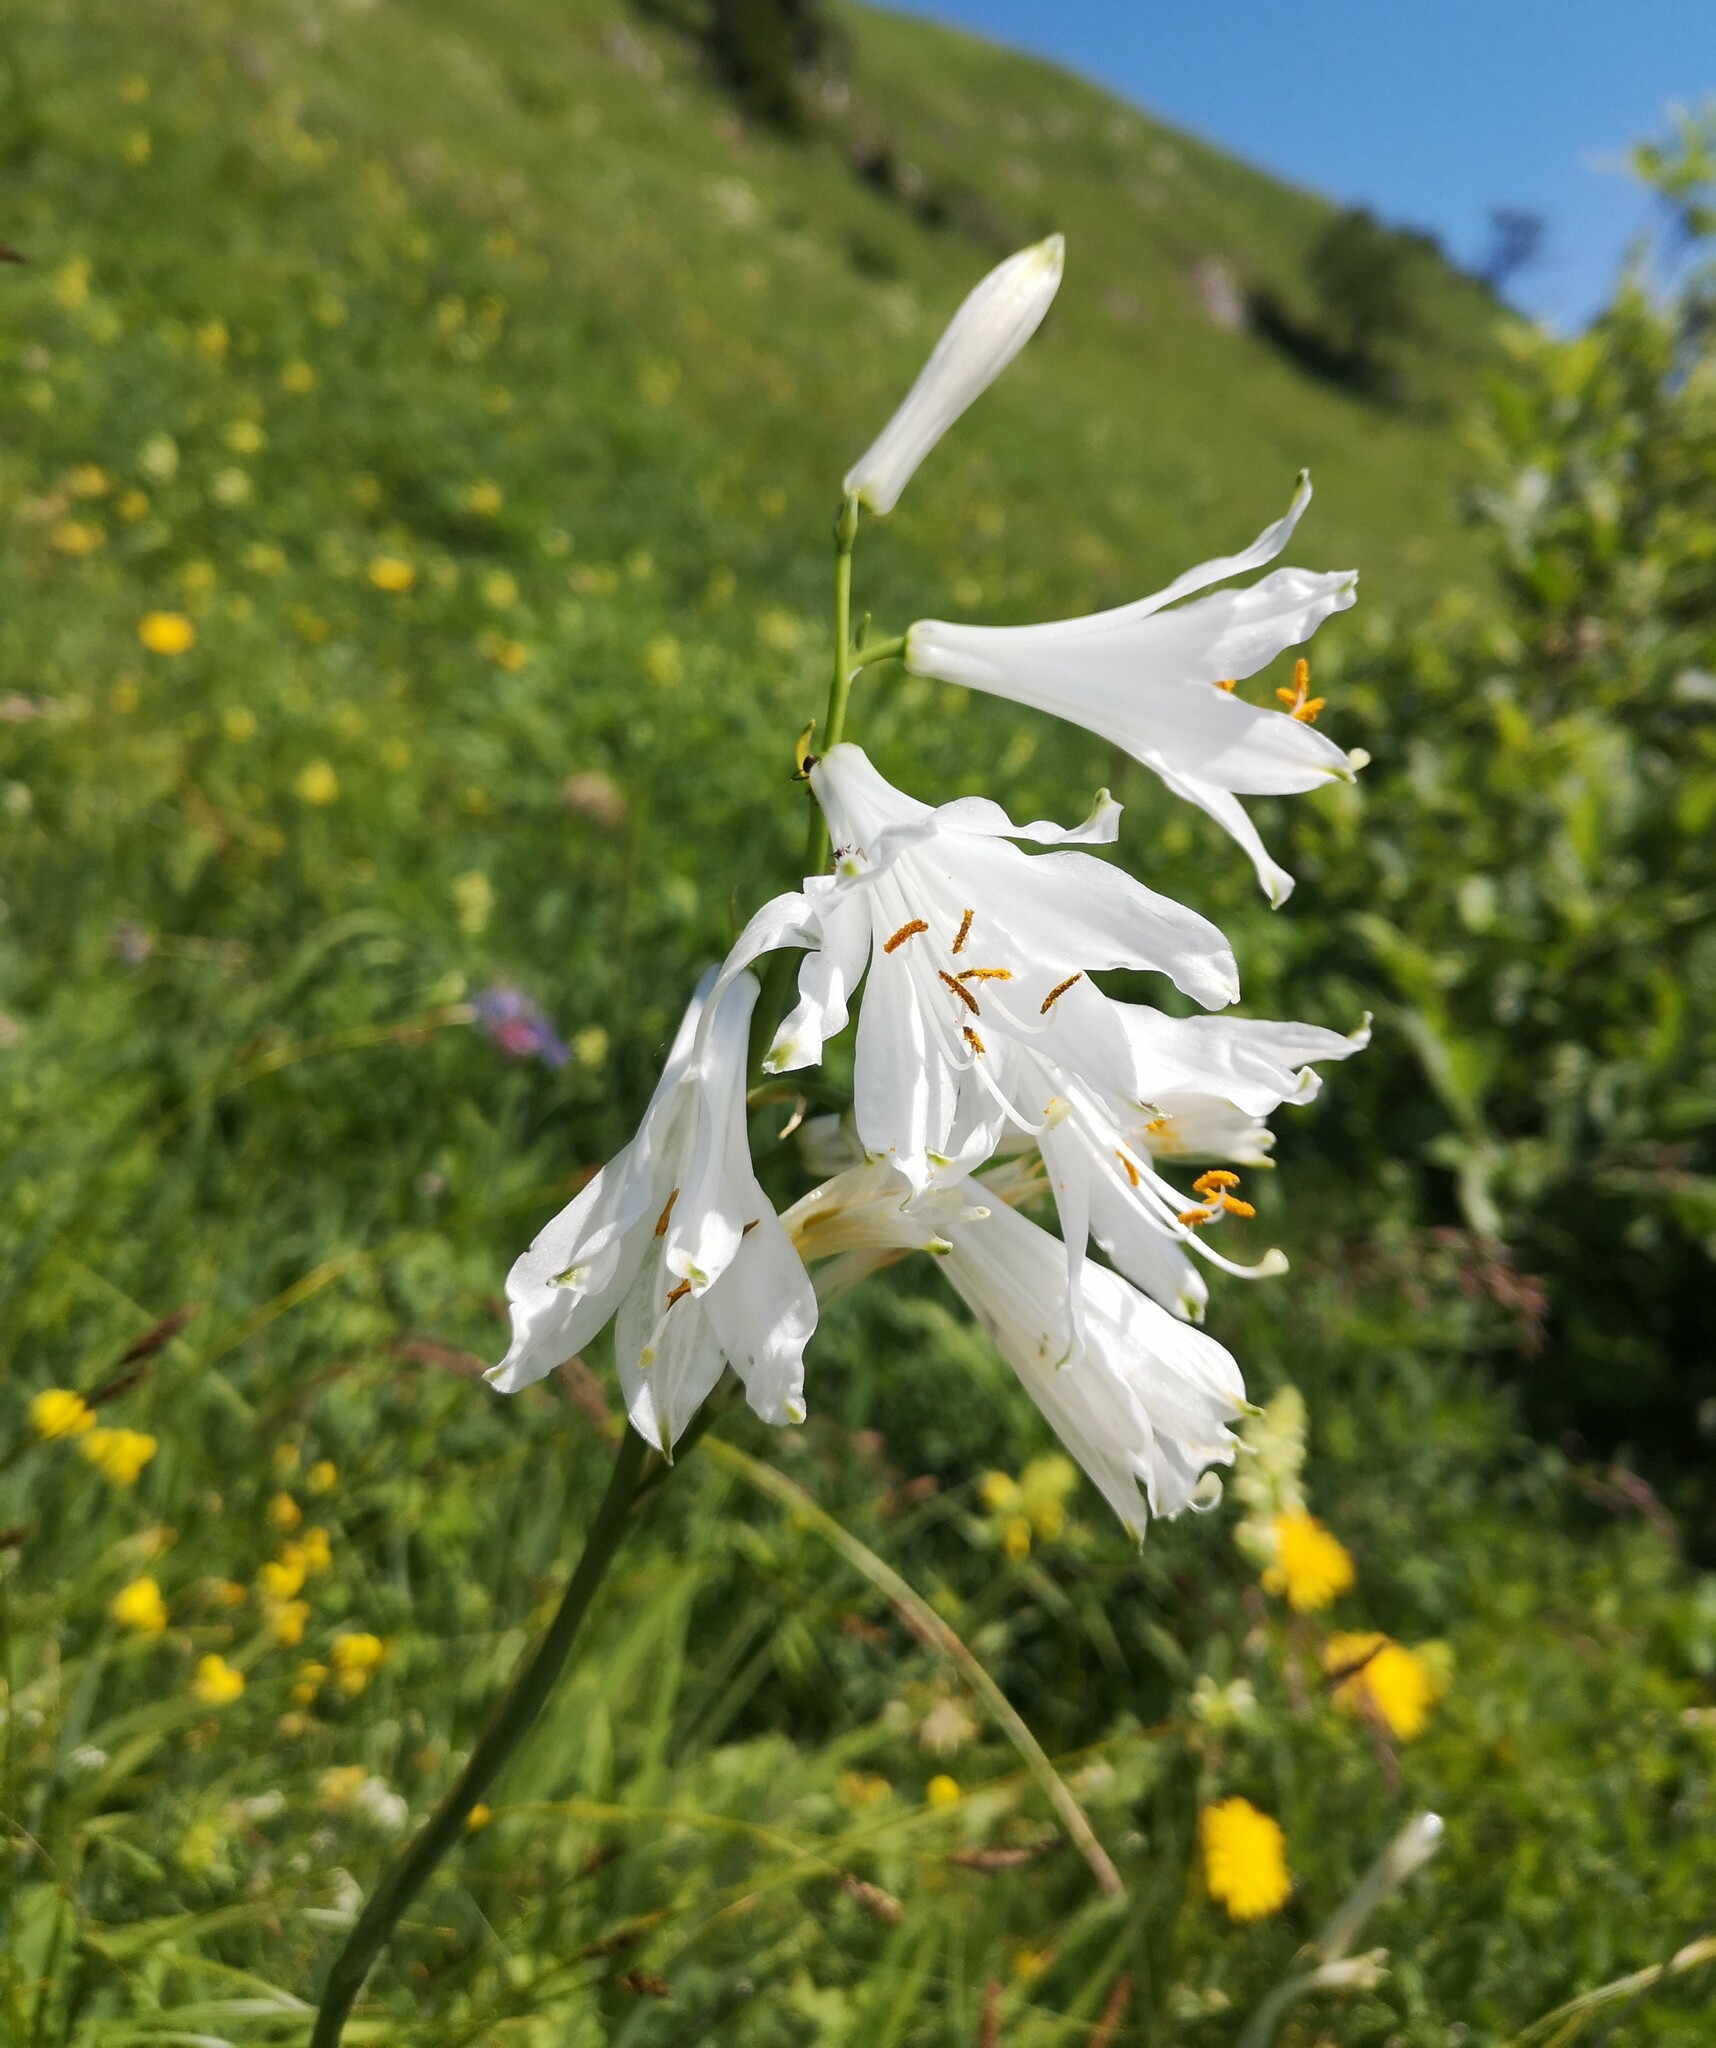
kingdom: Plantae
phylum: Tracheophyta
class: Liliopsida
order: Asparagales
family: Asparagaceae
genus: Paradisea
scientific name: Paradisea liliastrum
